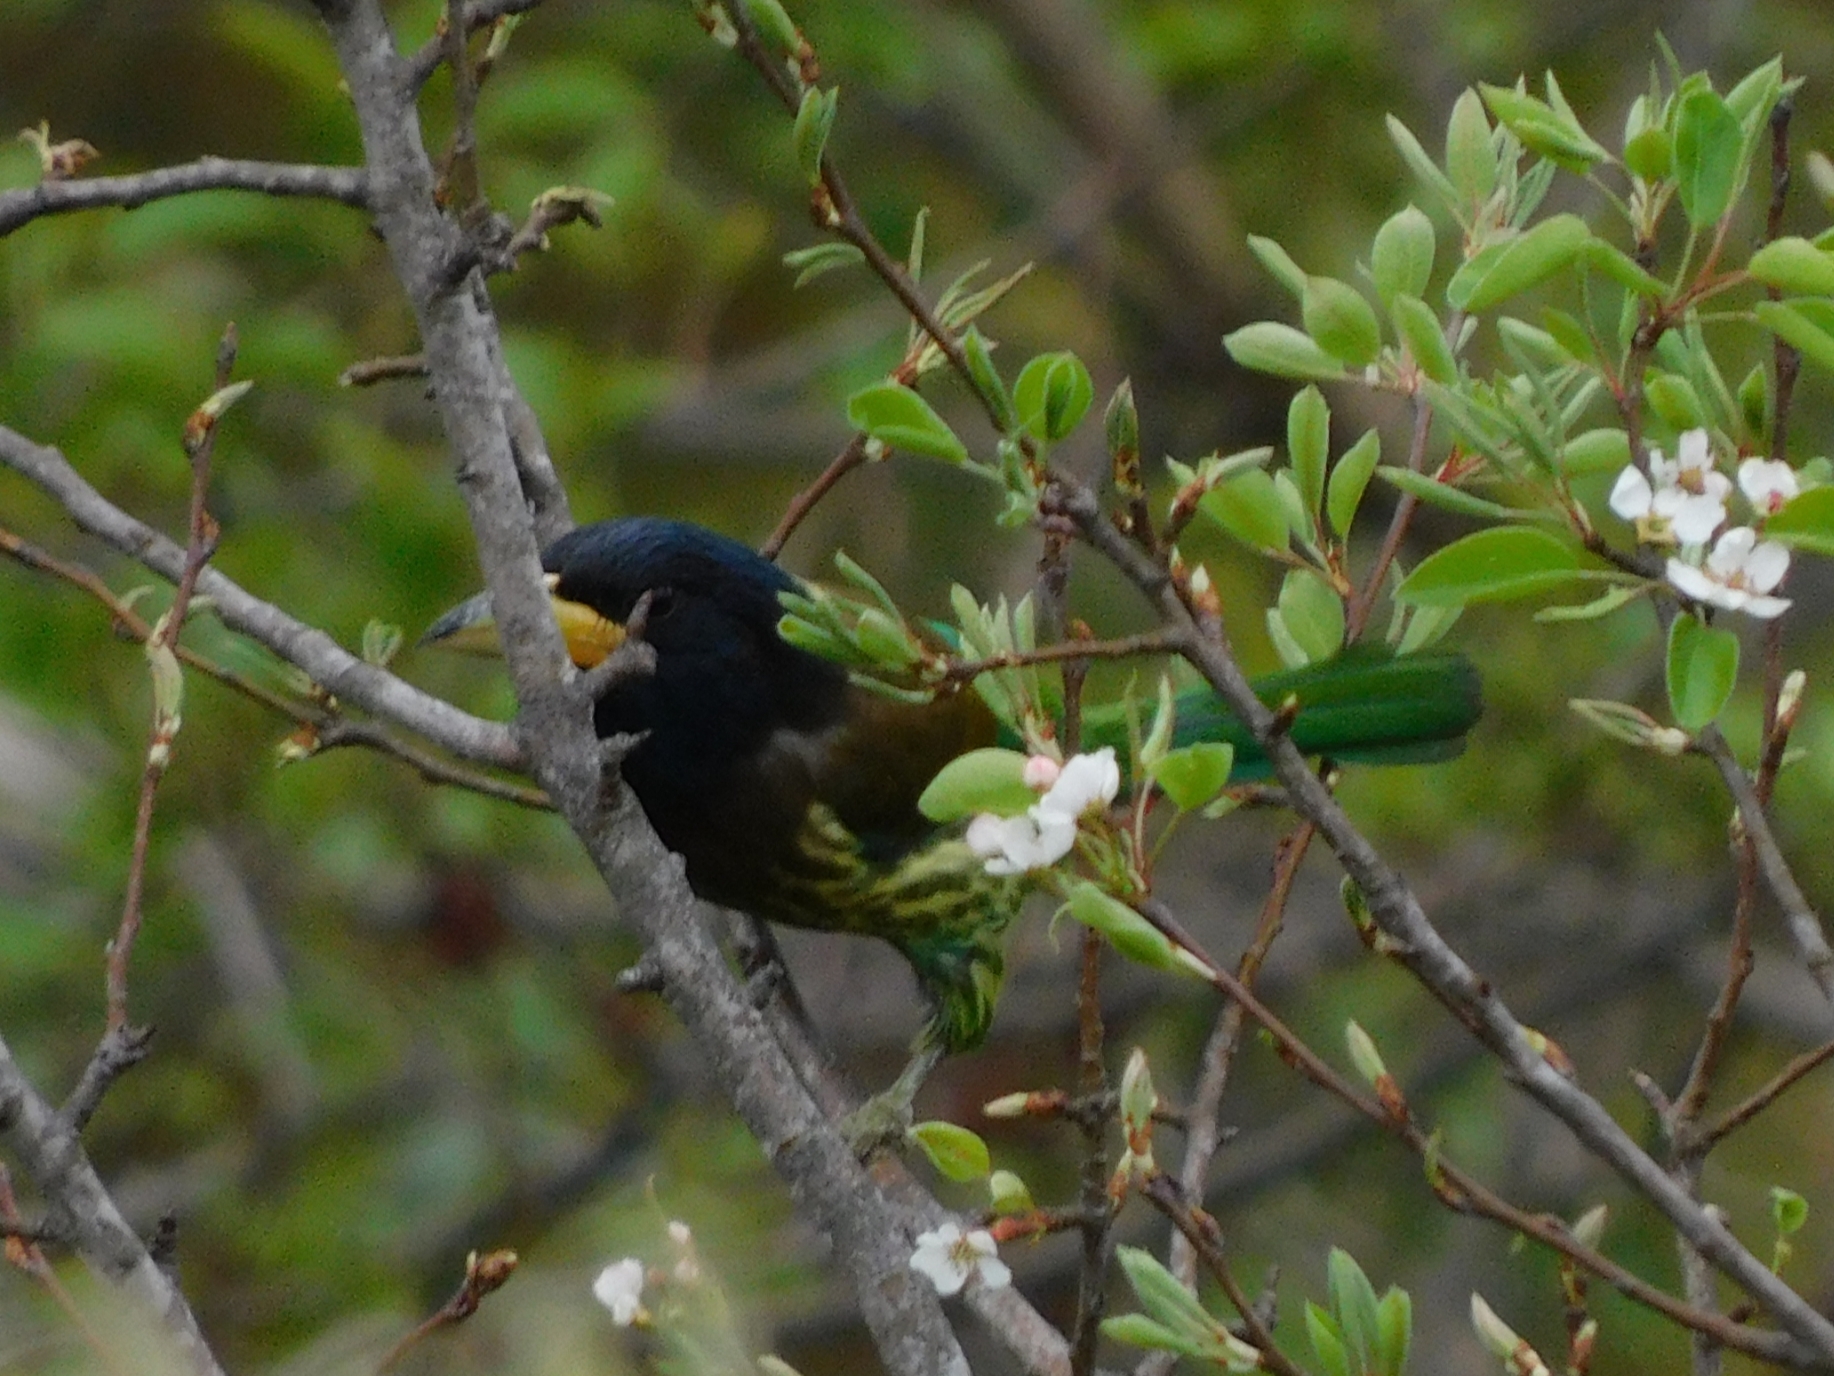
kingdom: Animalia
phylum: Chordata
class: Aves
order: Piciformes
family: Megalaimidae
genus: Psilopogon
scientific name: Psilopogon virens
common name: Great barbet
